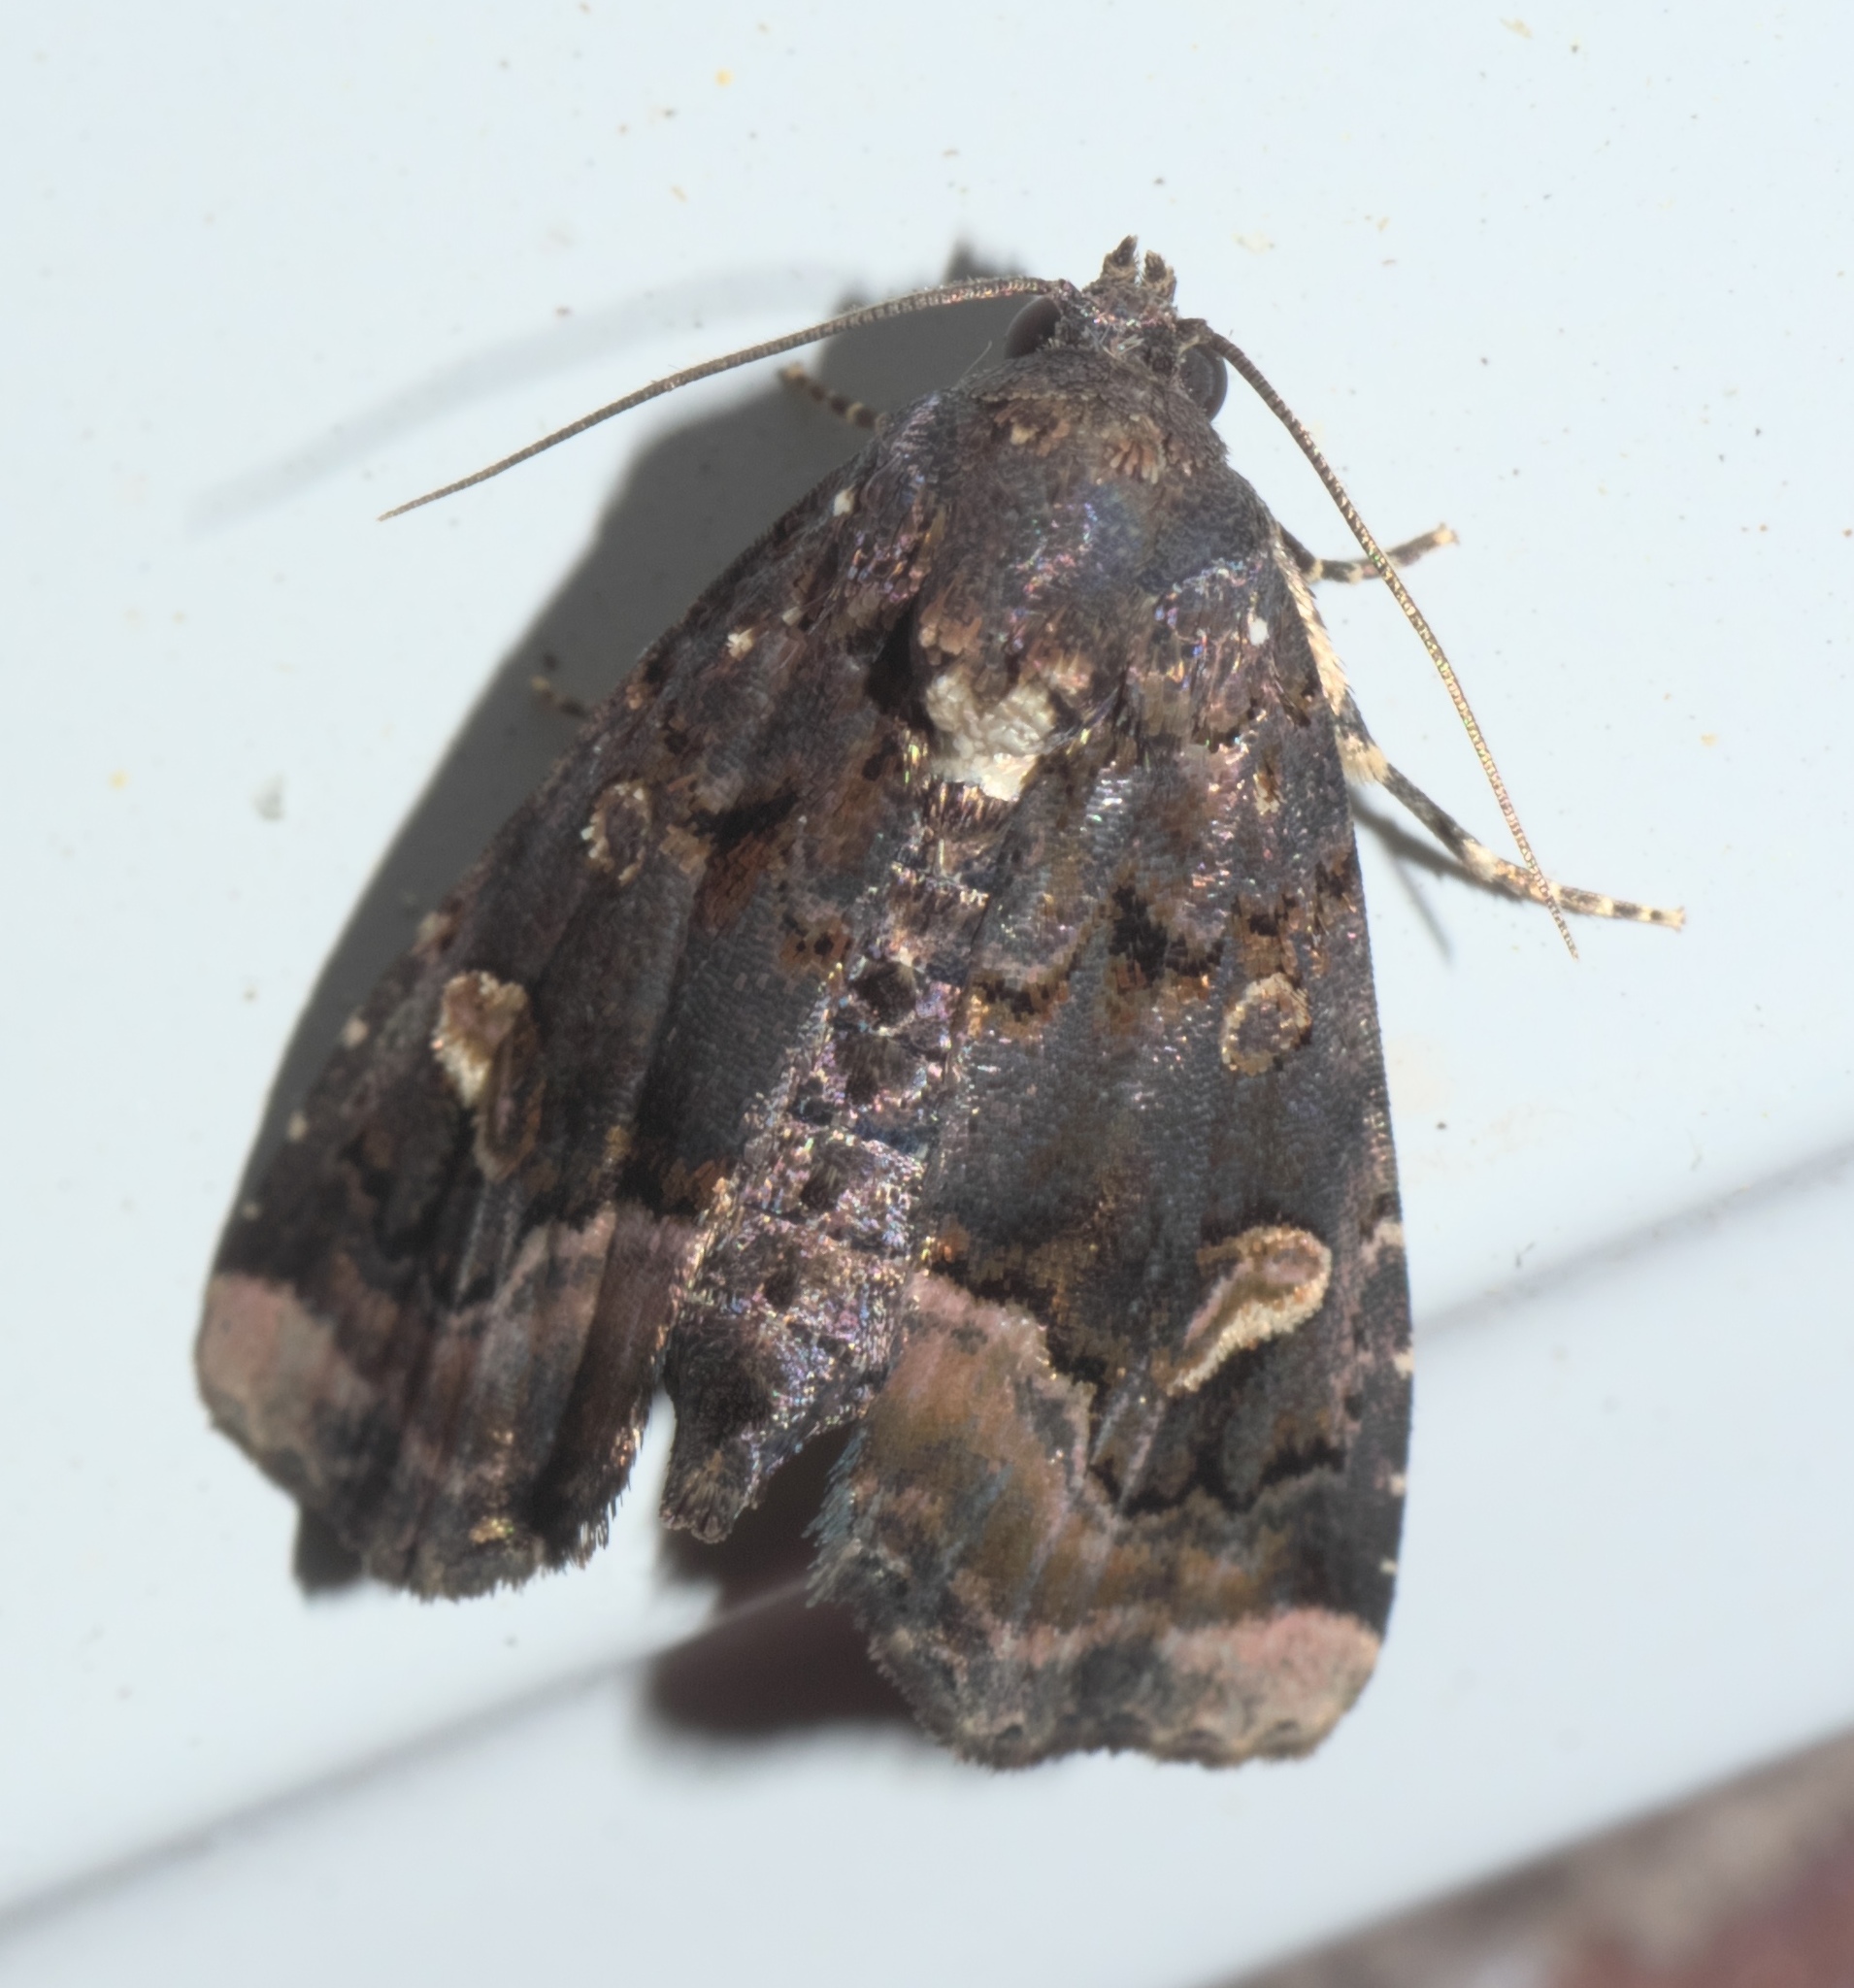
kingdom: Animalia
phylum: Arthropoda
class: Insecta
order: Lepidoptera
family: Noctuidae
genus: Homophoberia
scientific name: Homophoberia apicosa
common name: Black wedge-spot
